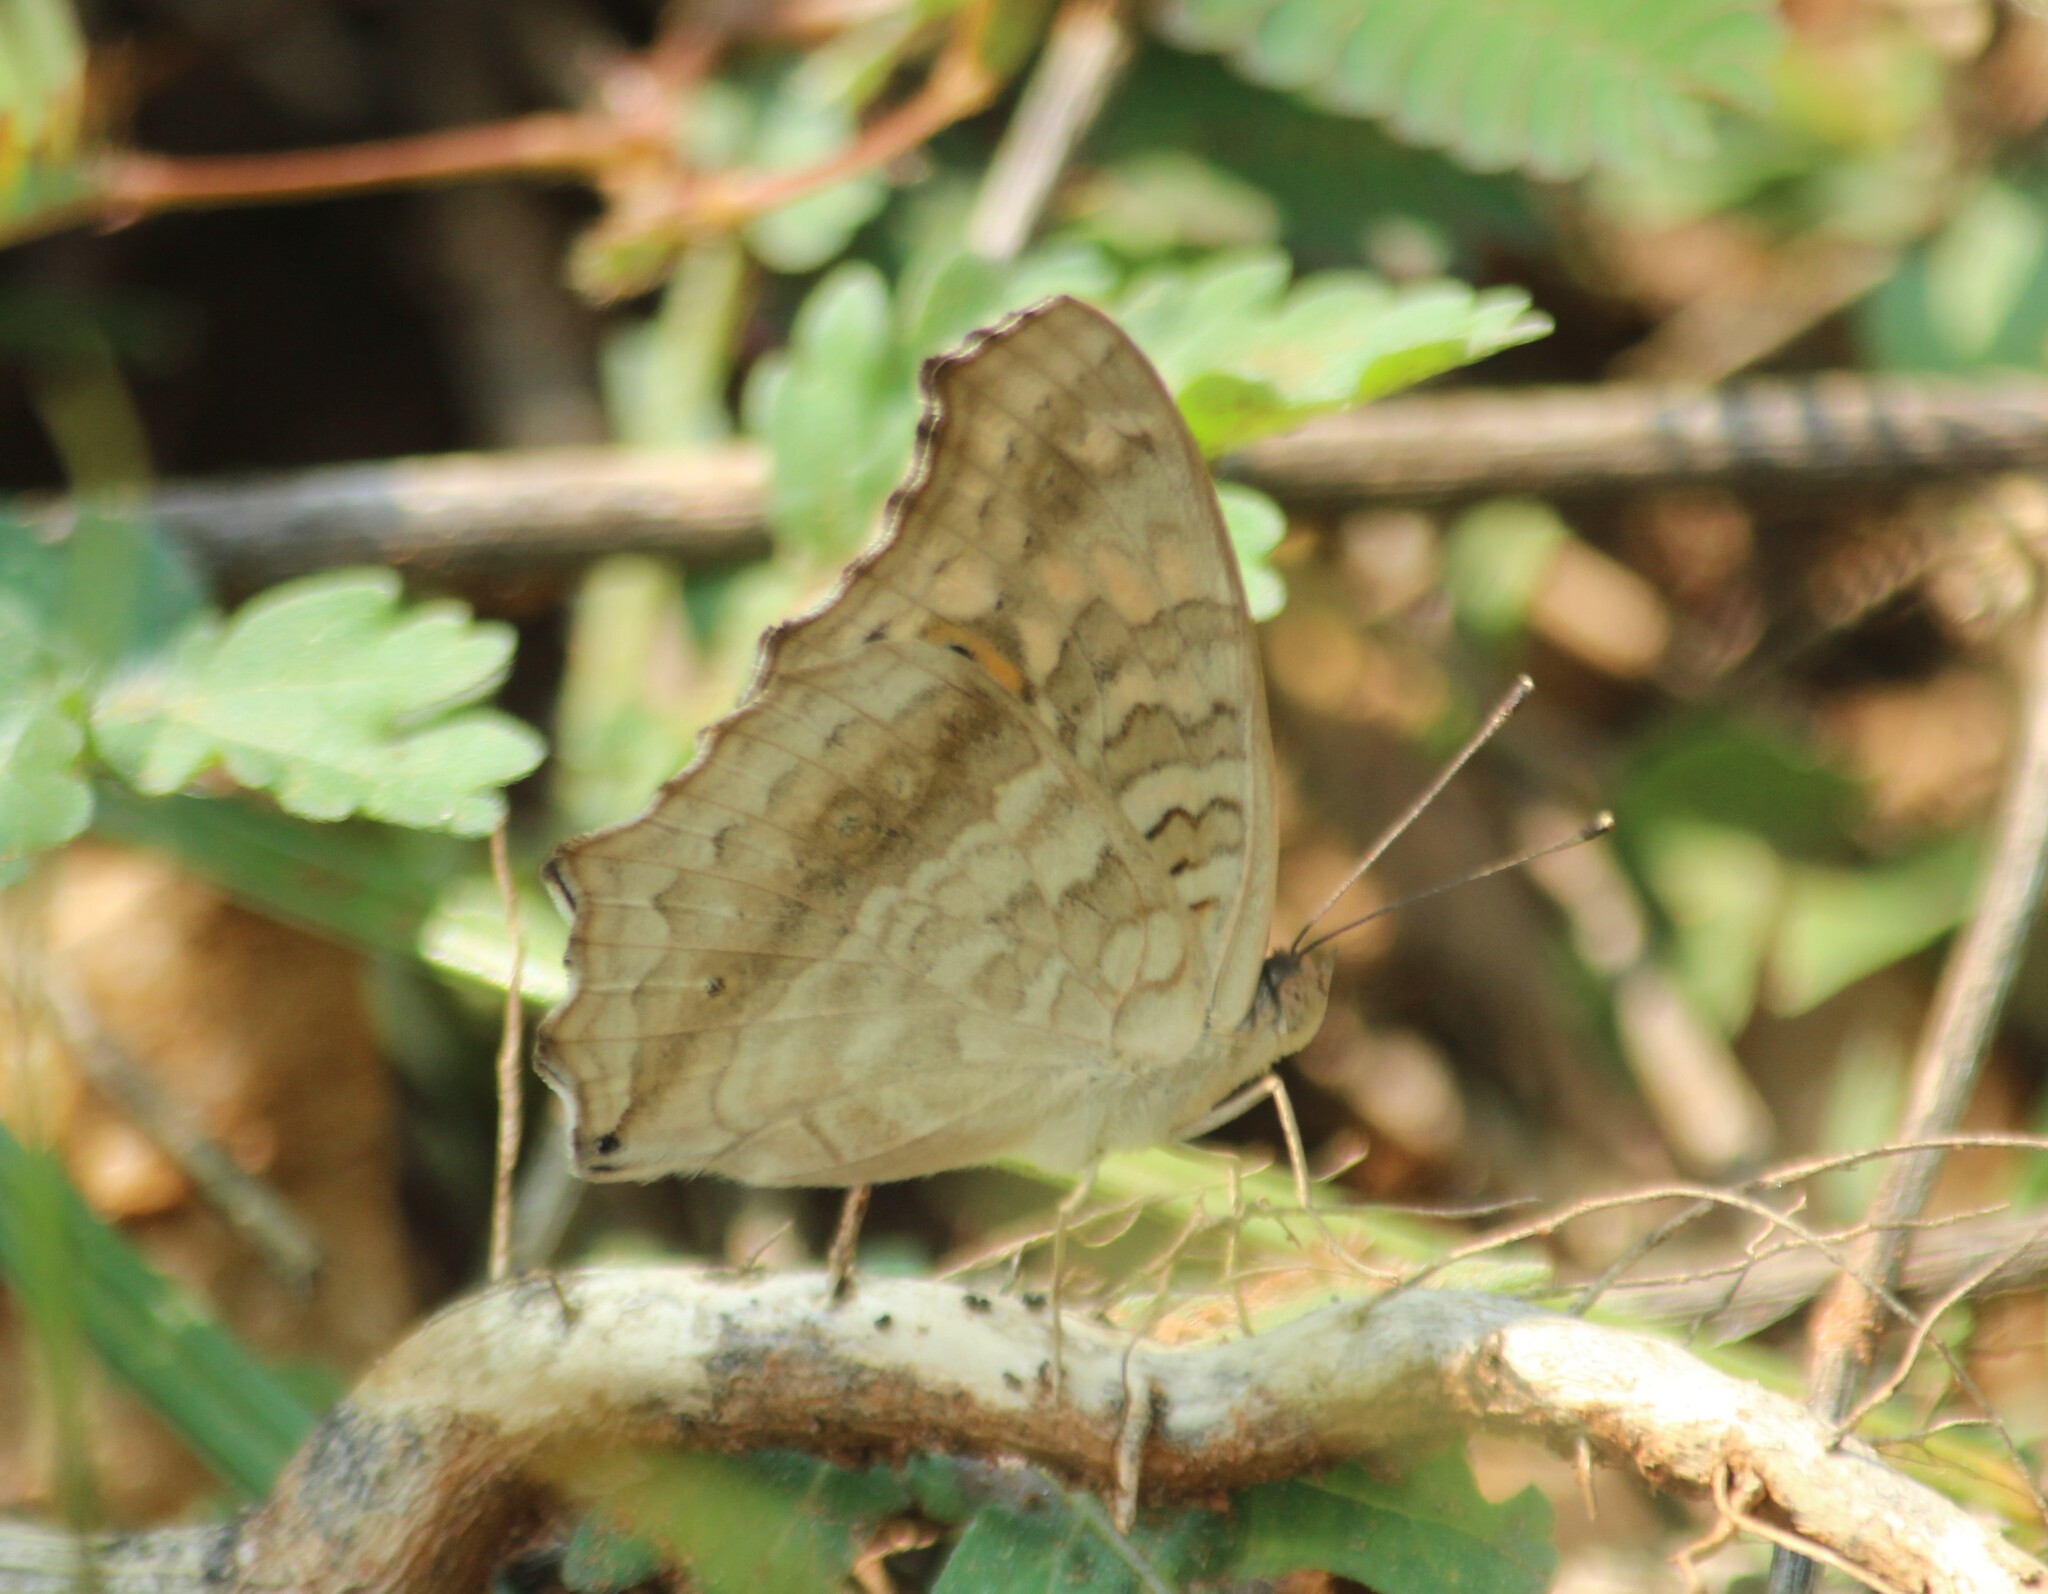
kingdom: Animalia
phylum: Arthropoda
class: Insecta
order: Lepidoptera
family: Nymphalidae
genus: Junonia
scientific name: Junonia lemonias
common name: Lemon pansy
